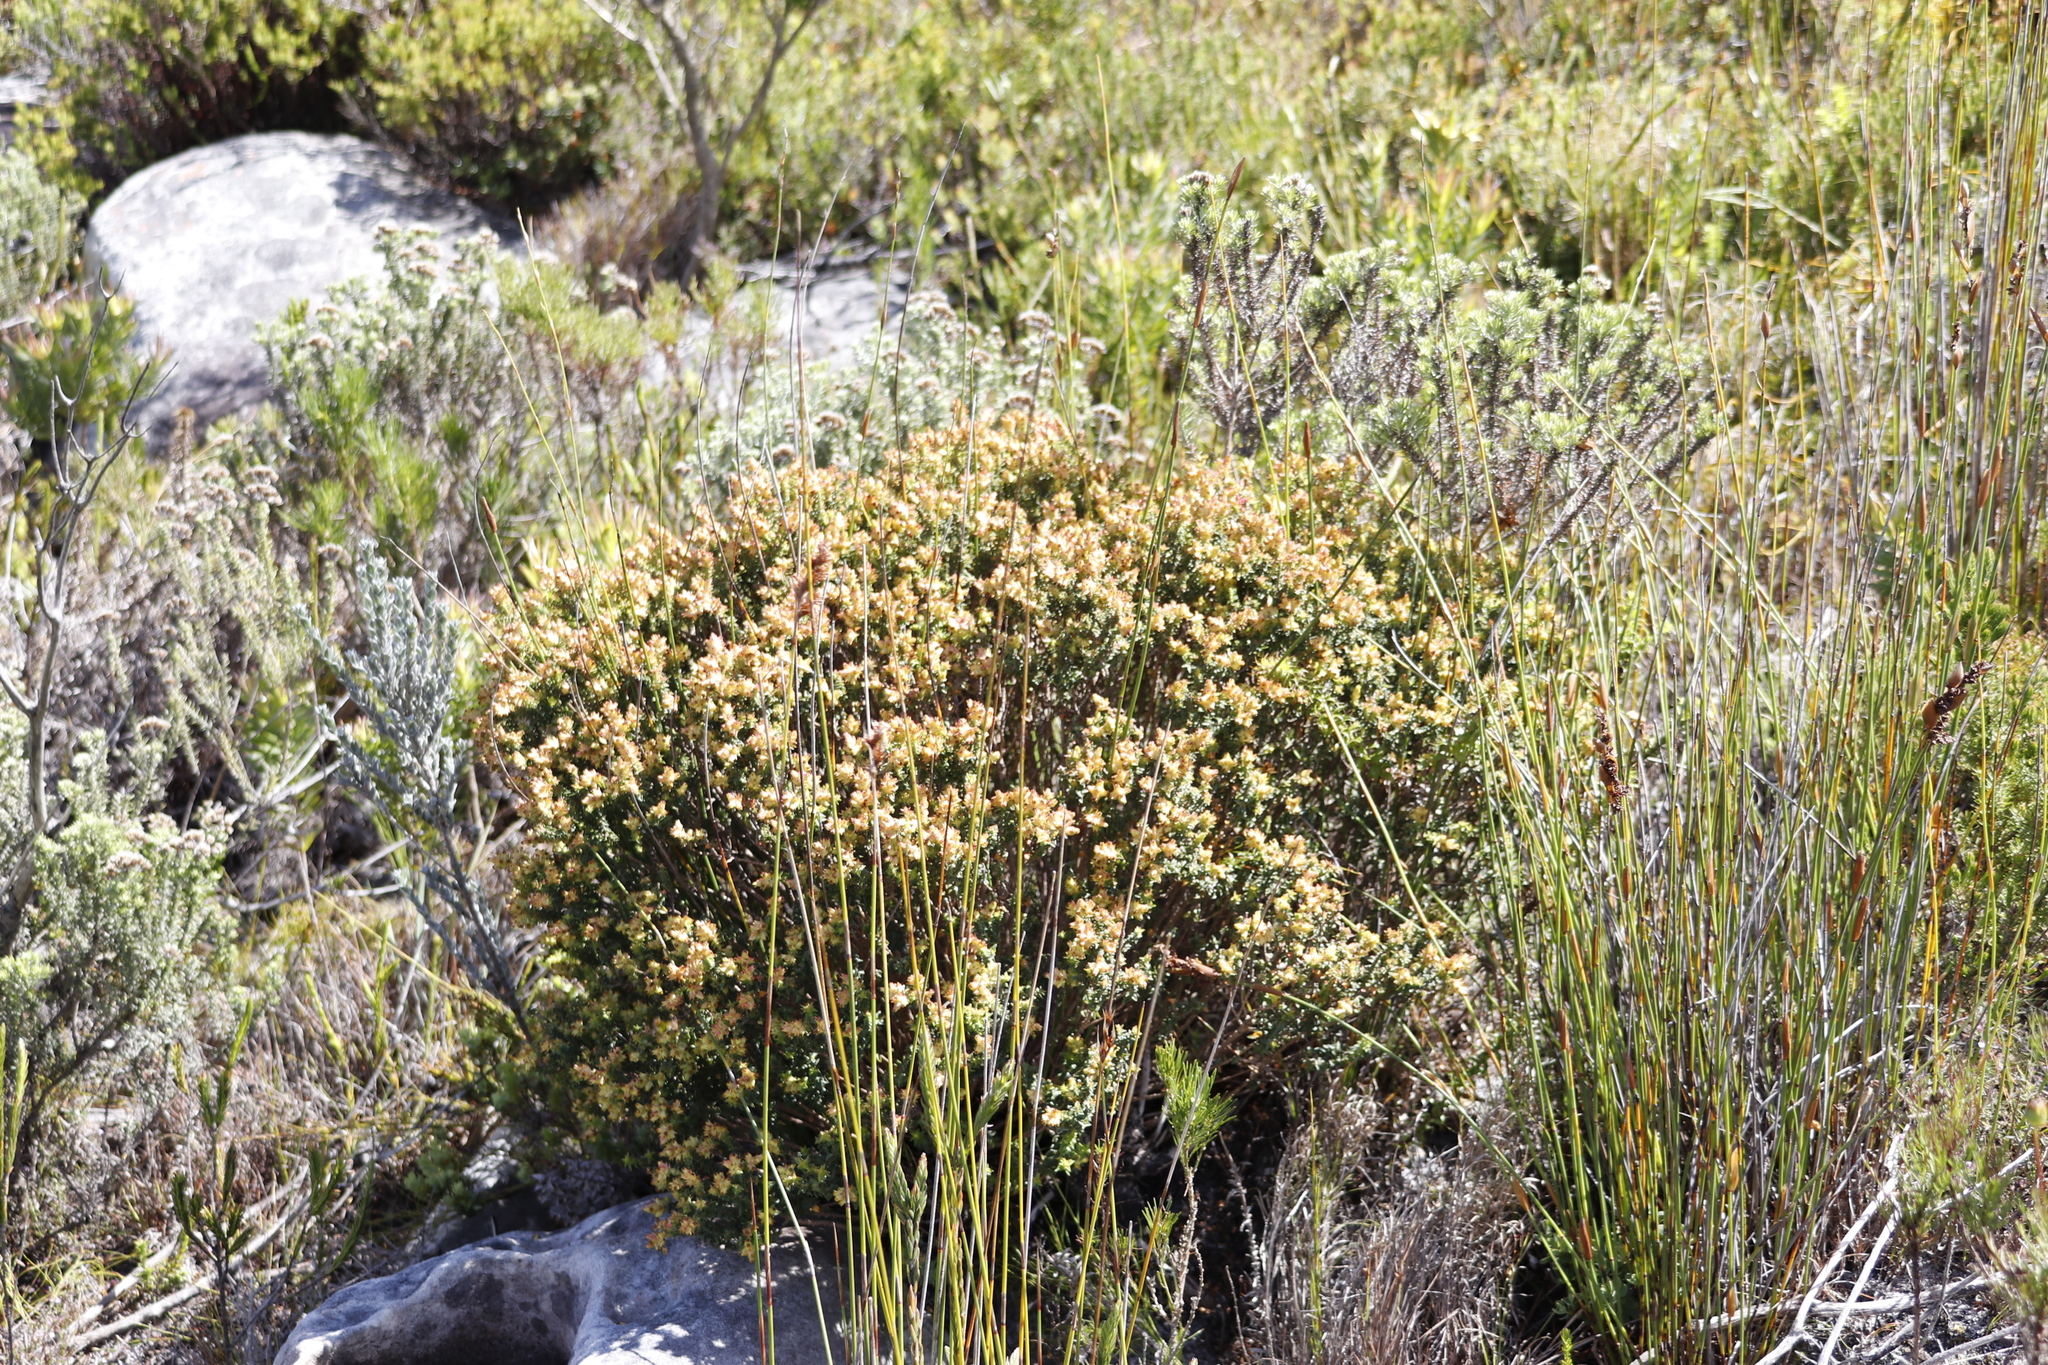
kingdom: Plantae
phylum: Tracheophyta
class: Magnoliopsida
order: Myrtales
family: Penaeaceae
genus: Penaea
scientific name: Penaea mucronata
